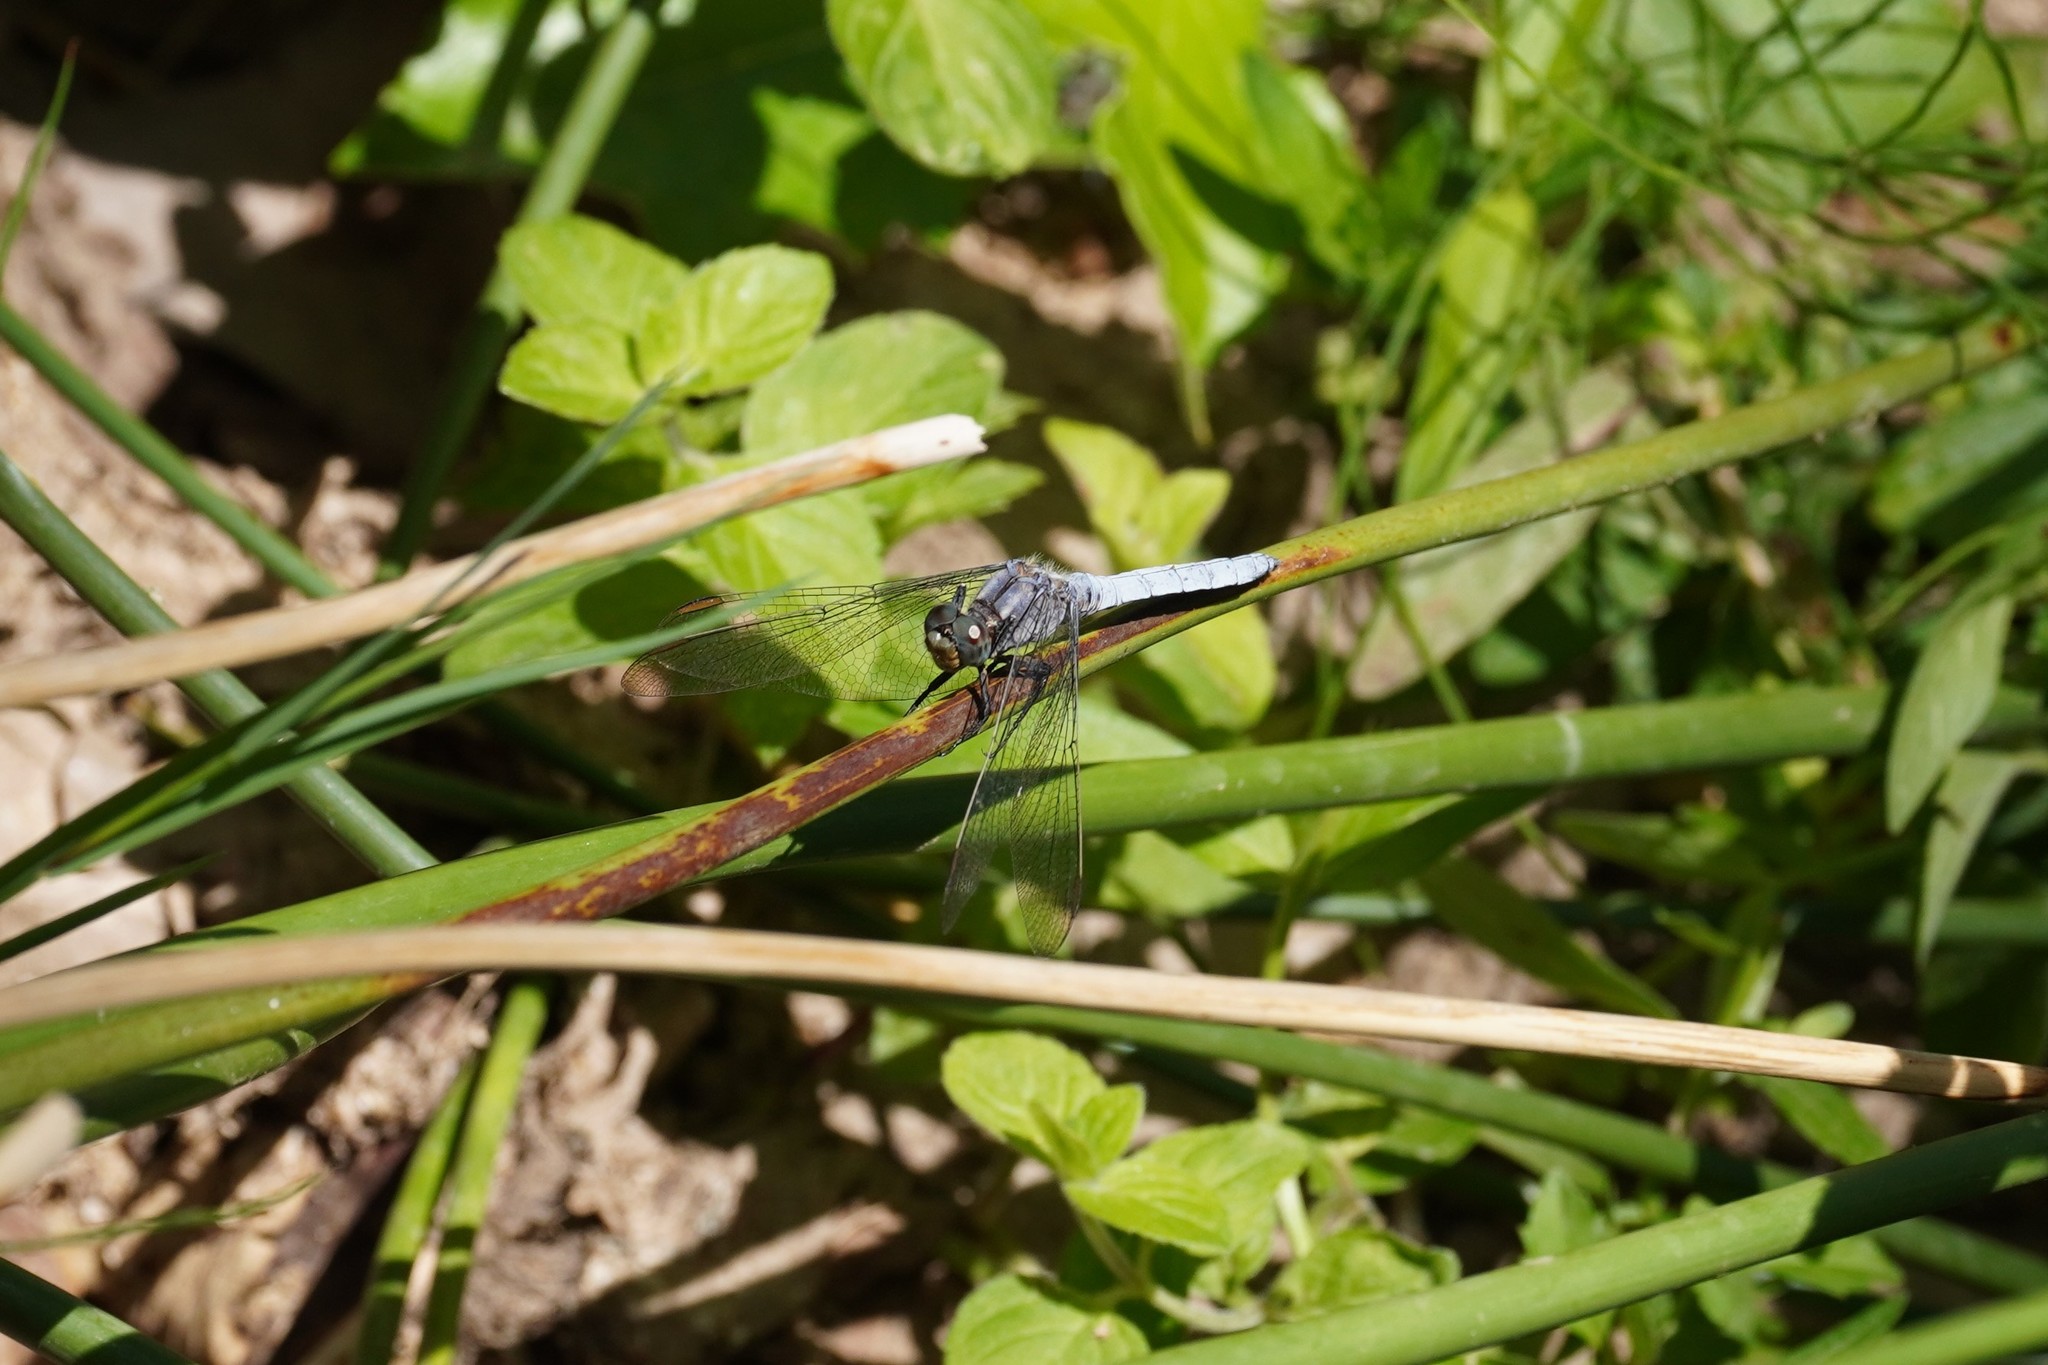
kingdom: Animalia
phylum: Arthropoda
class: Insecta
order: Odonata
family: Libellulidae
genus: Orthetrum
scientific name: Orthetrum coerulescens
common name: Keeled skimmer
